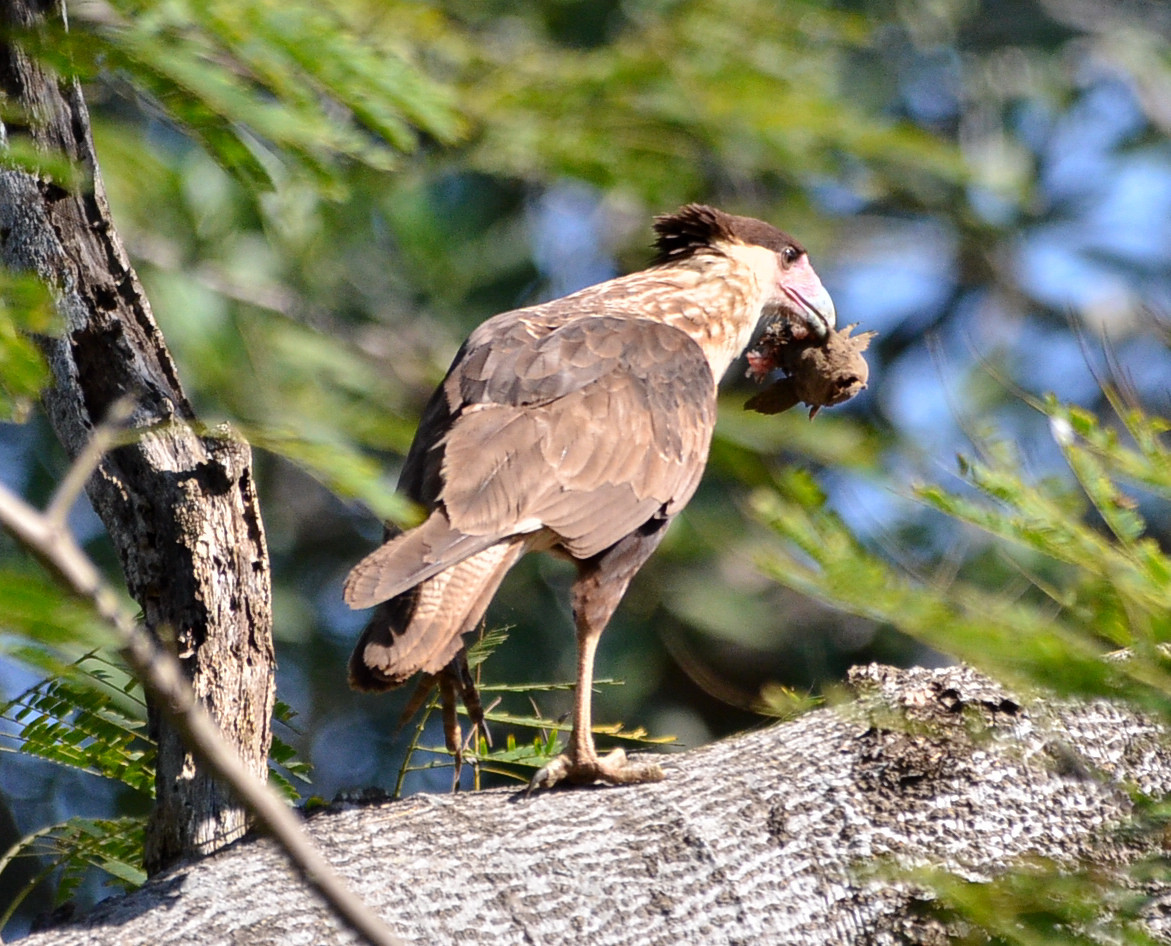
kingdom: Animalia
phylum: Chordata
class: Aves
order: Falconiformes
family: Falconidae
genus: Caracara
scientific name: Caracara plancus
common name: Southern caracara
